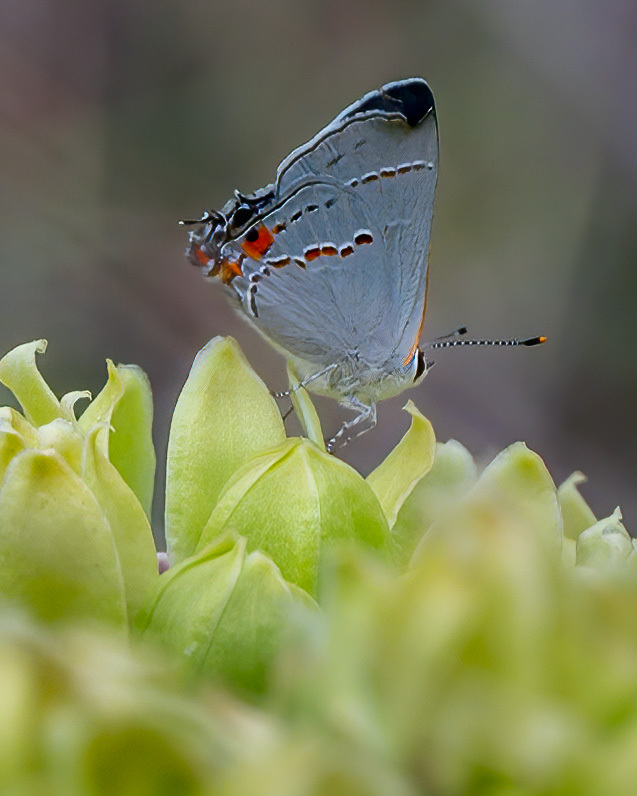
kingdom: Animalia
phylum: Arthropoda
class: Insecta
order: Lepidoptera
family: Lycaenidae
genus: Strymon
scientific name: Strymon melinus
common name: Gray hairstreak
